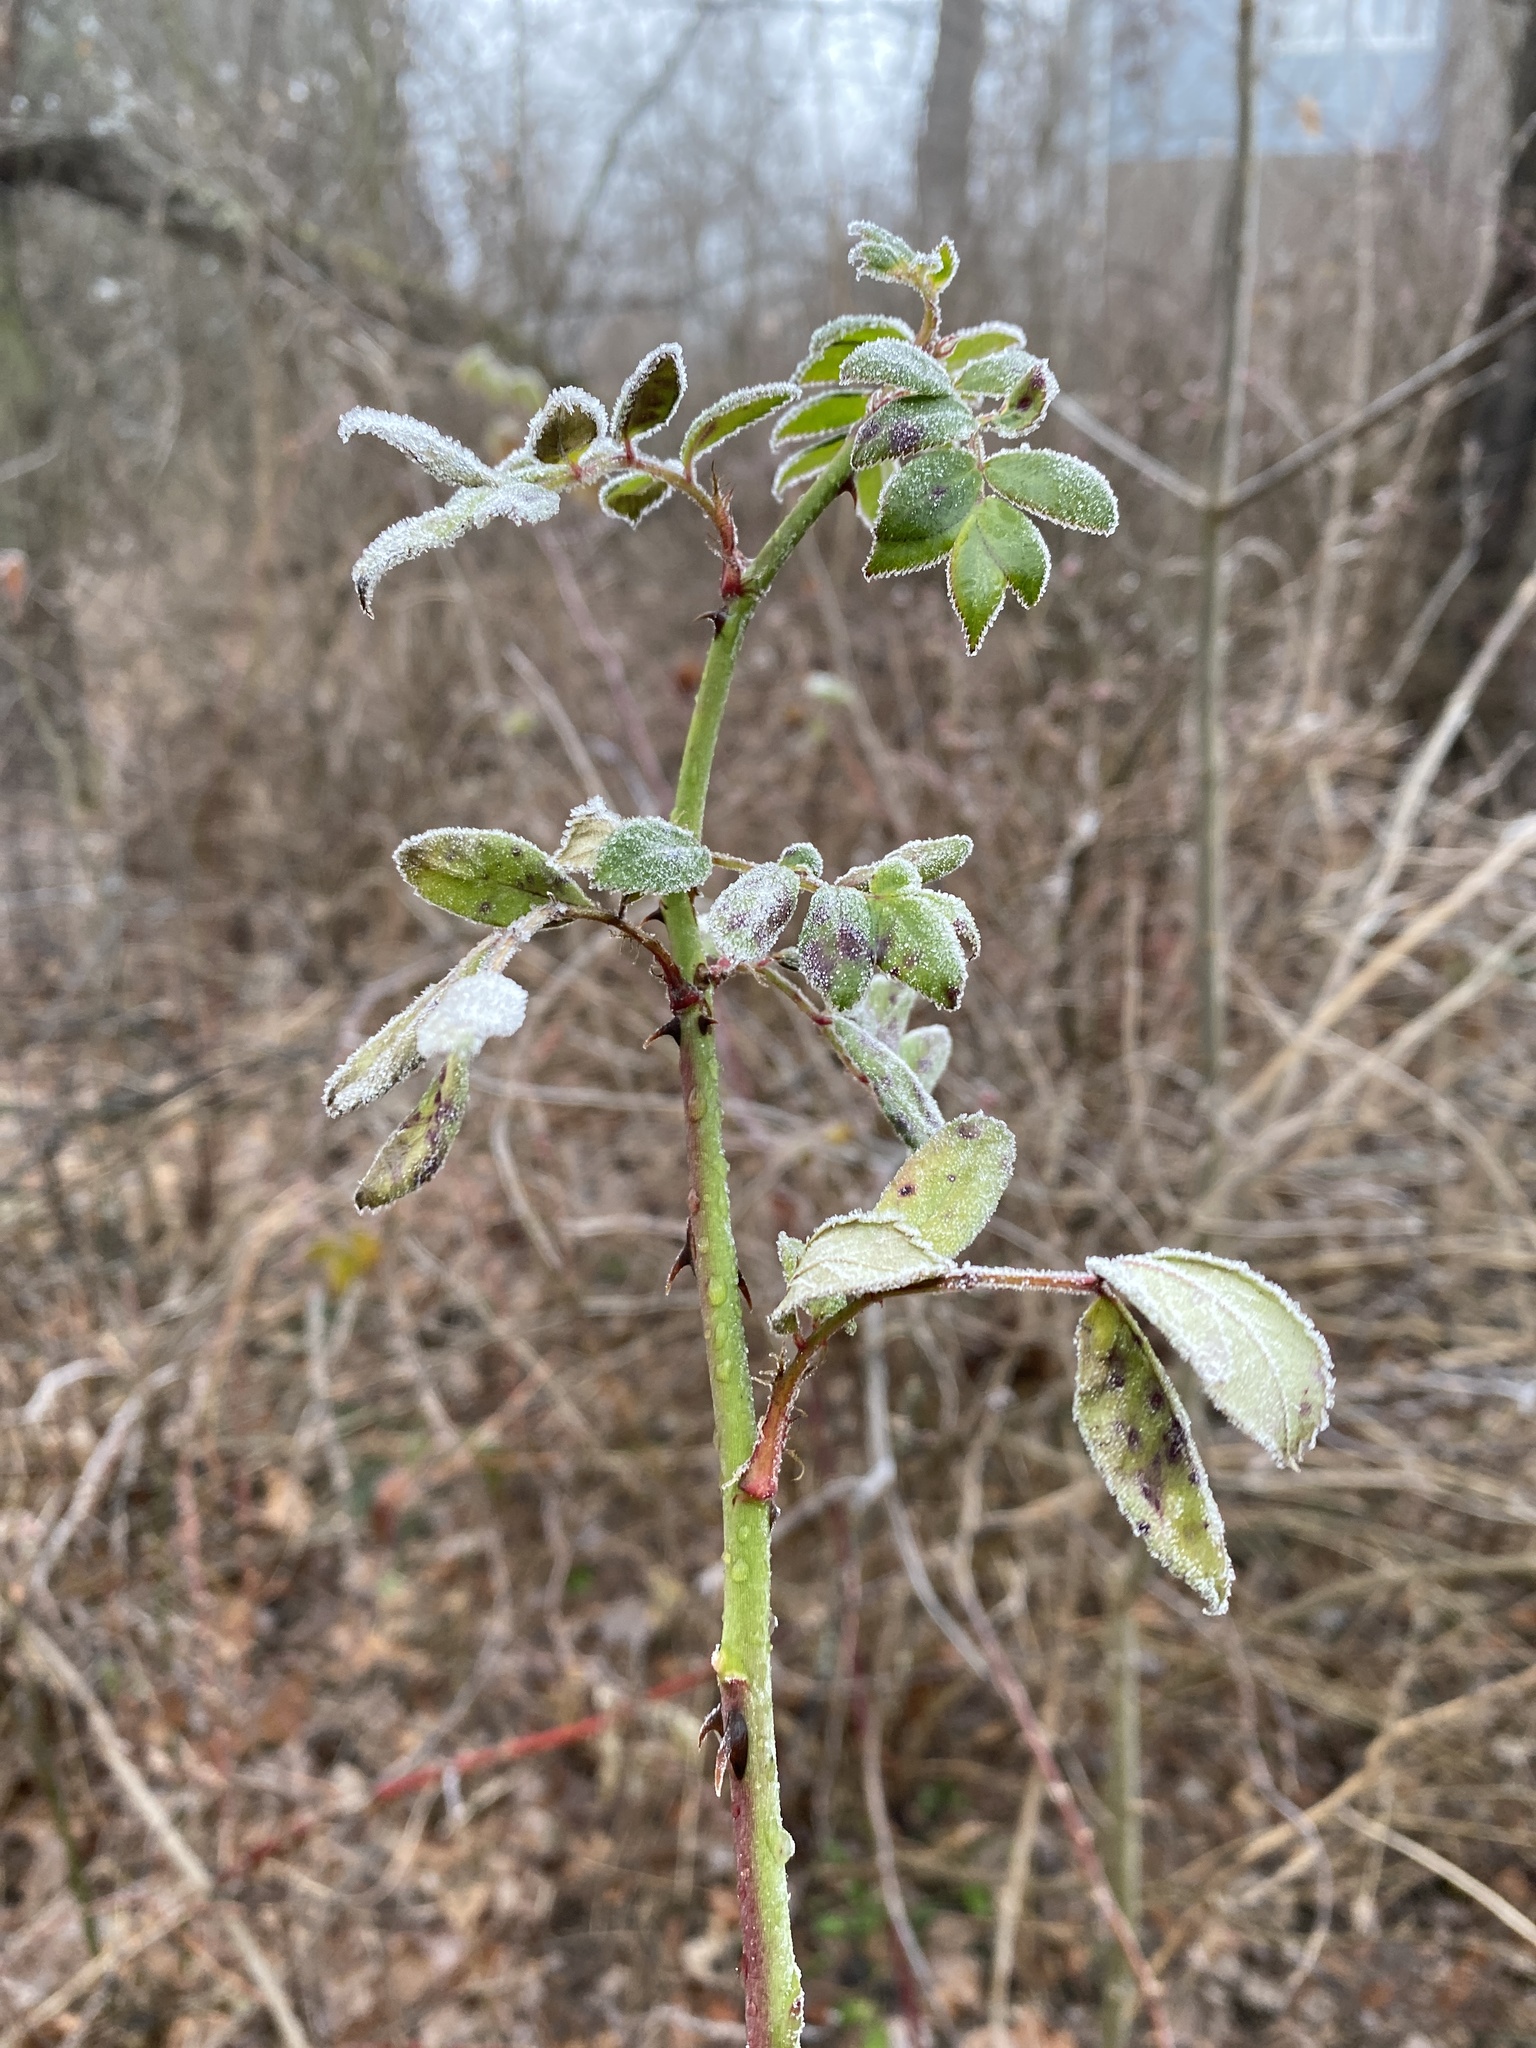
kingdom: Plantae
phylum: Tracheophyta
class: Magnoliopsida
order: Rosales
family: Rosaceae
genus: Rosa
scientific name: Rosa multiflora
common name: Multiflora rose
